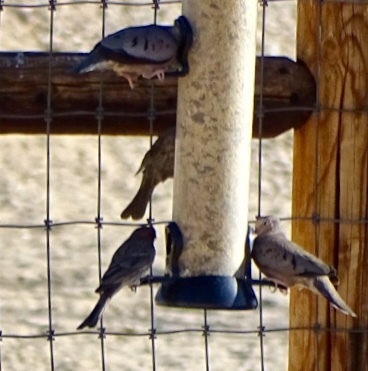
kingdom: Animalia
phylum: Chordata
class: Aves
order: Columbiformes
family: Columbidae
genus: Columbina
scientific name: Columbina passerina
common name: Common ground-dove
